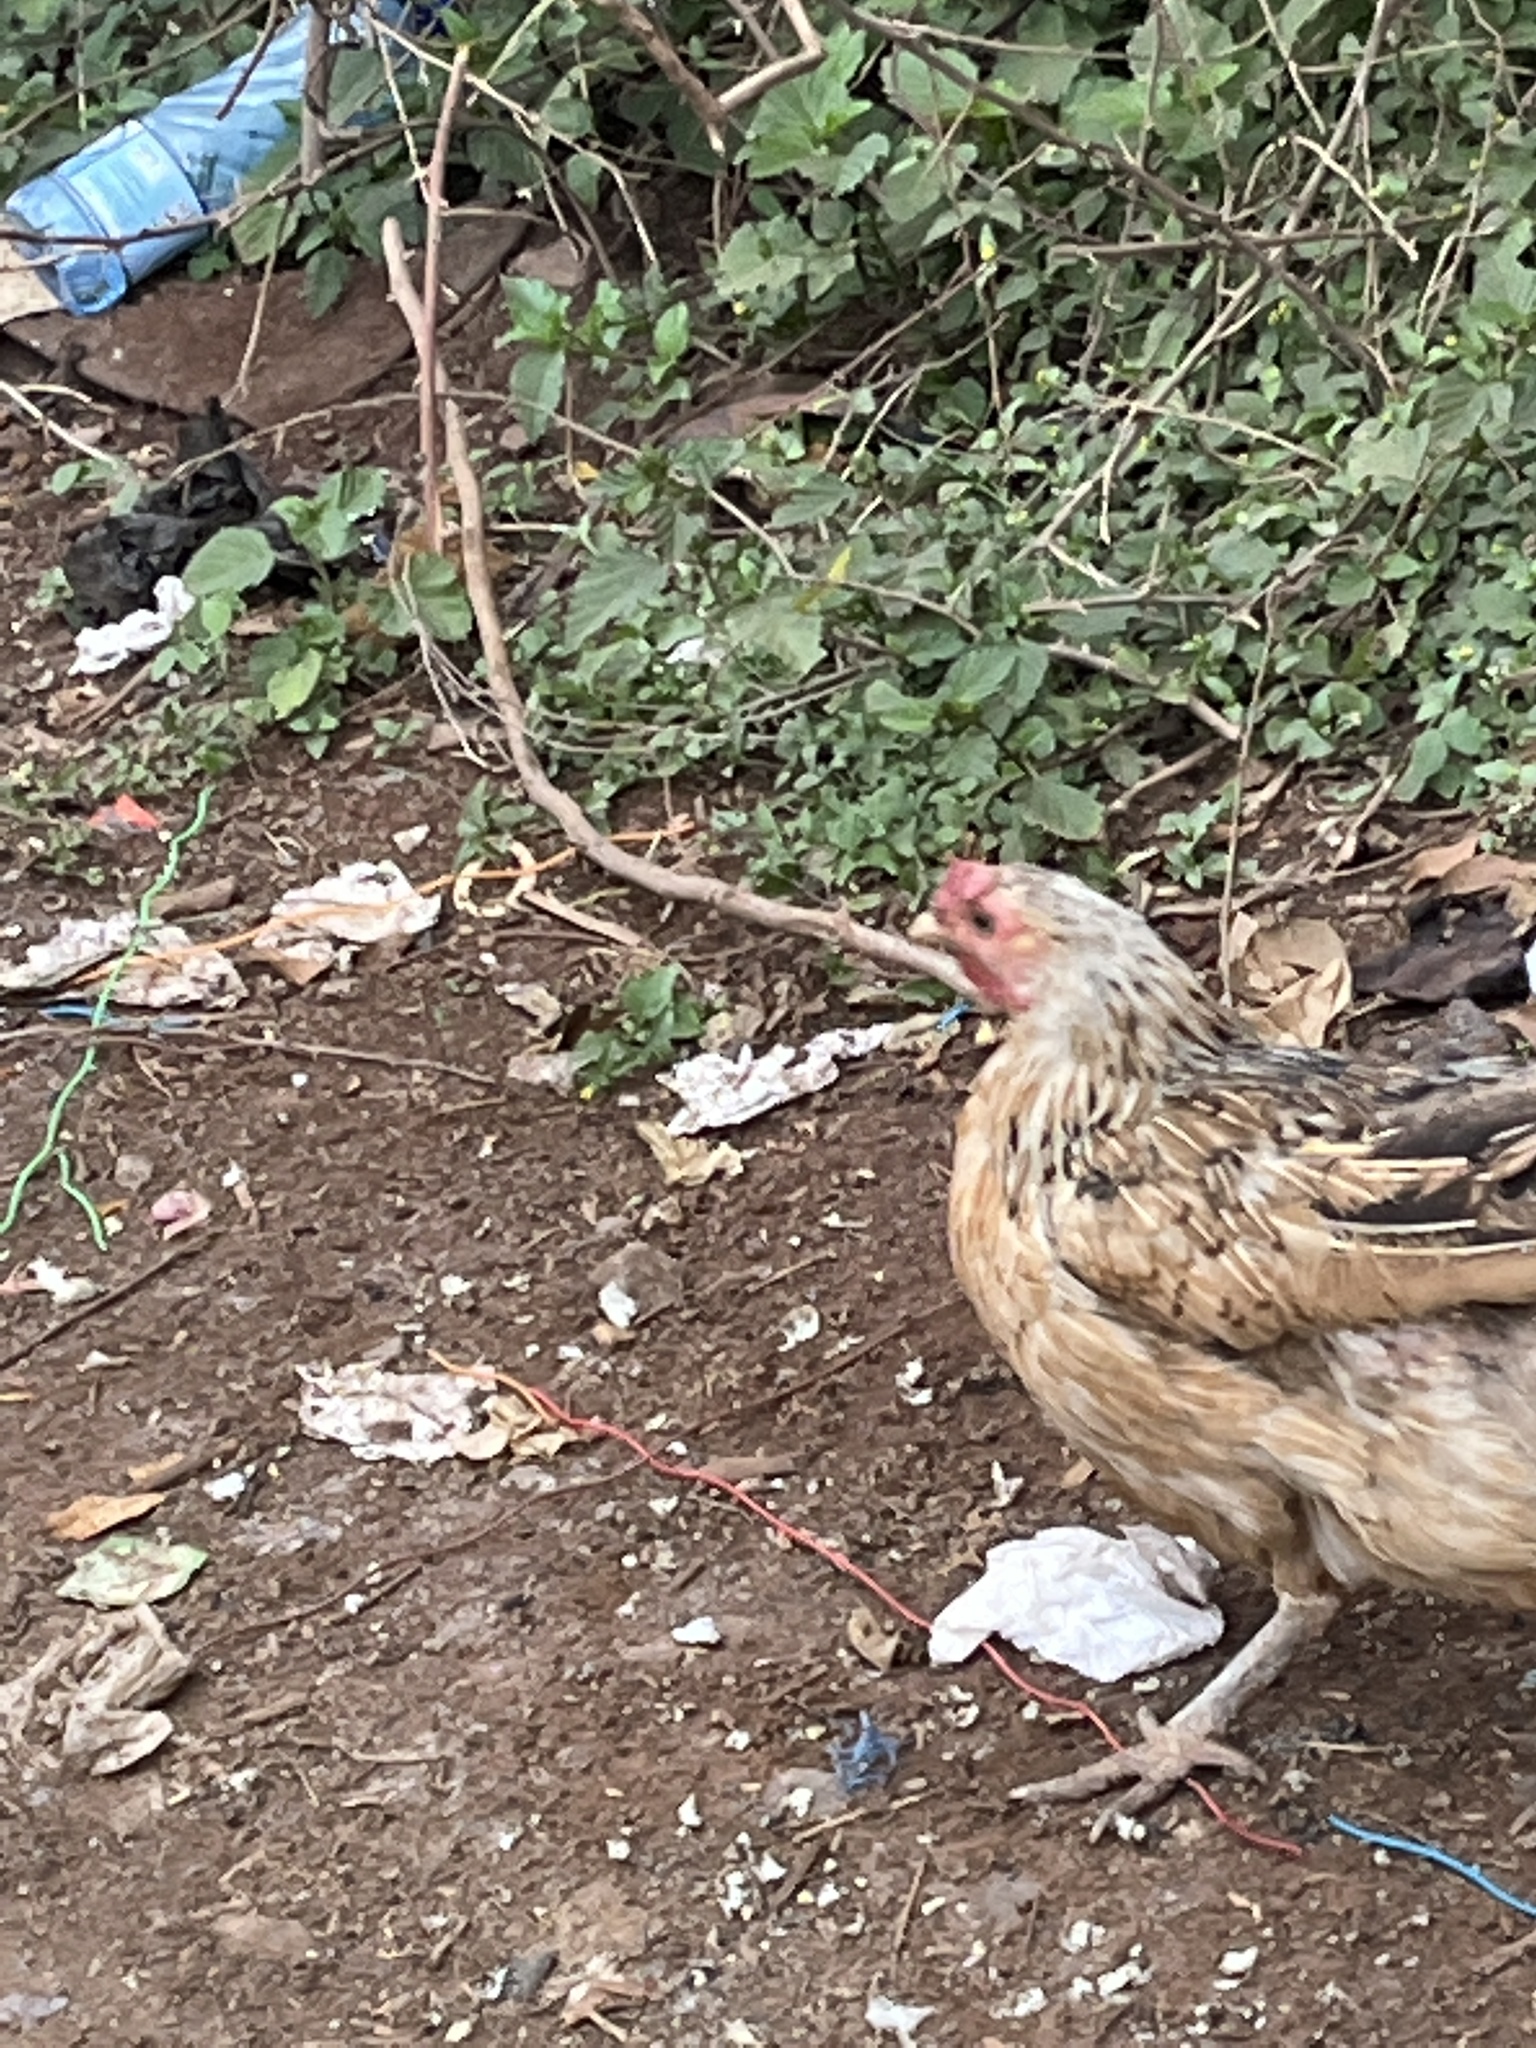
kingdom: Animalia
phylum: Chordata
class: Aves
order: Galliformes
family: Phasianidae
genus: Gallus
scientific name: Gallus gallus
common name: Red junglefowl
